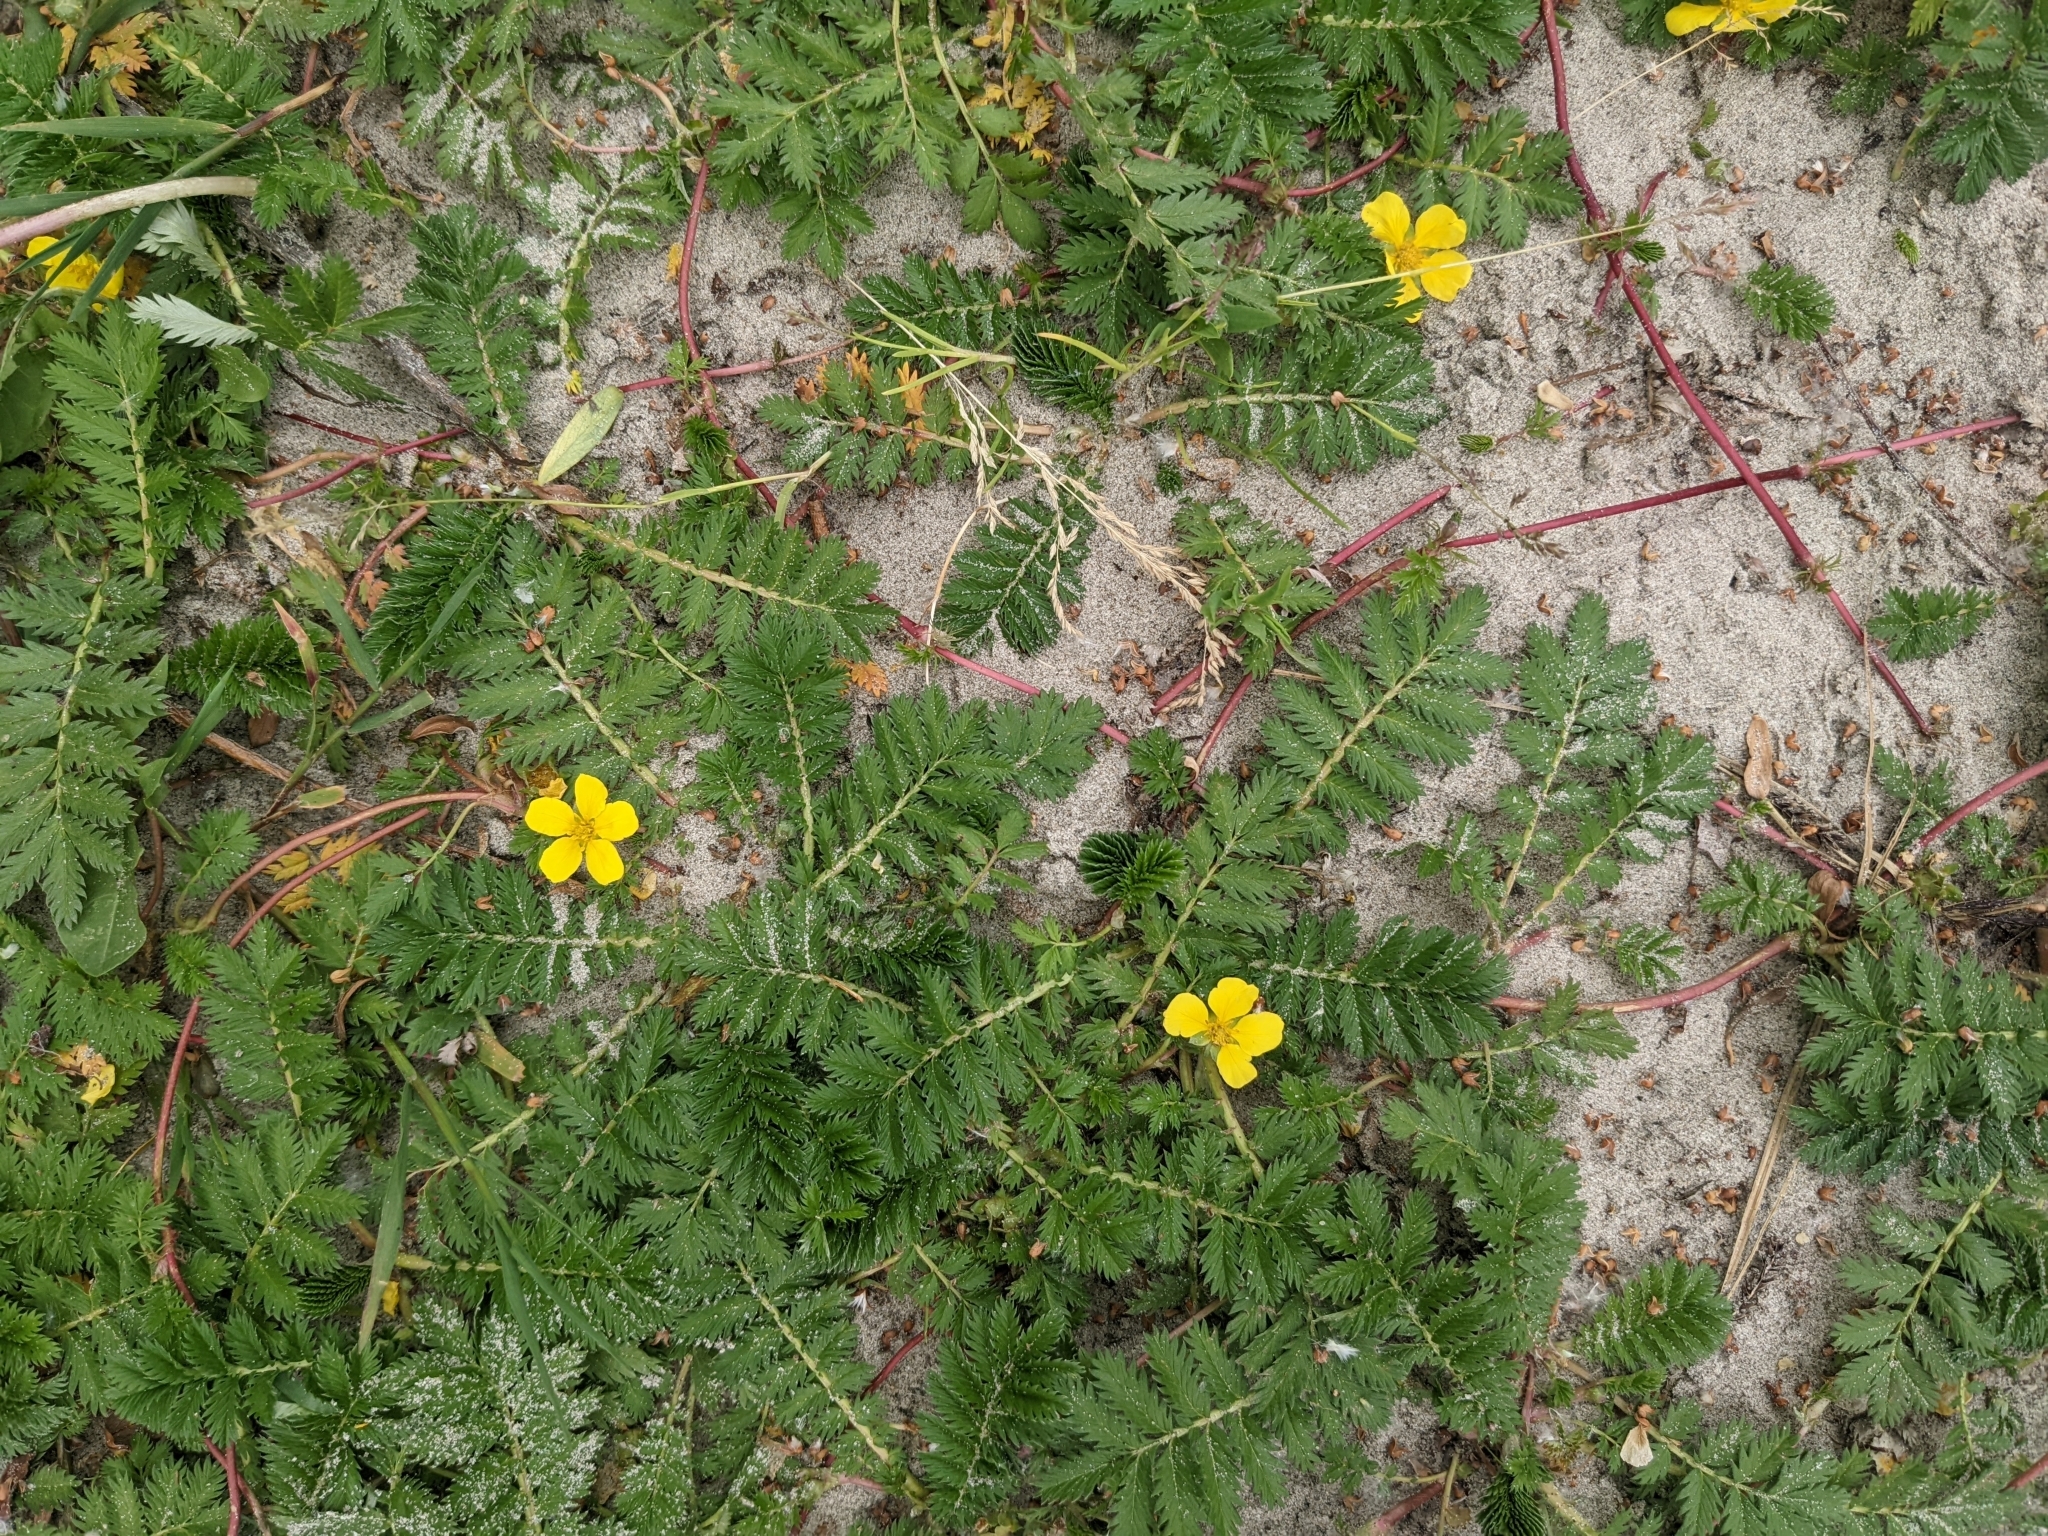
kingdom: Plantae
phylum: Tracheophyta
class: Magnoliopsida
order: Rosales
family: Rosaceae
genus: Argentina
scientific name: Argentina anserina
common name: Common silverweed
